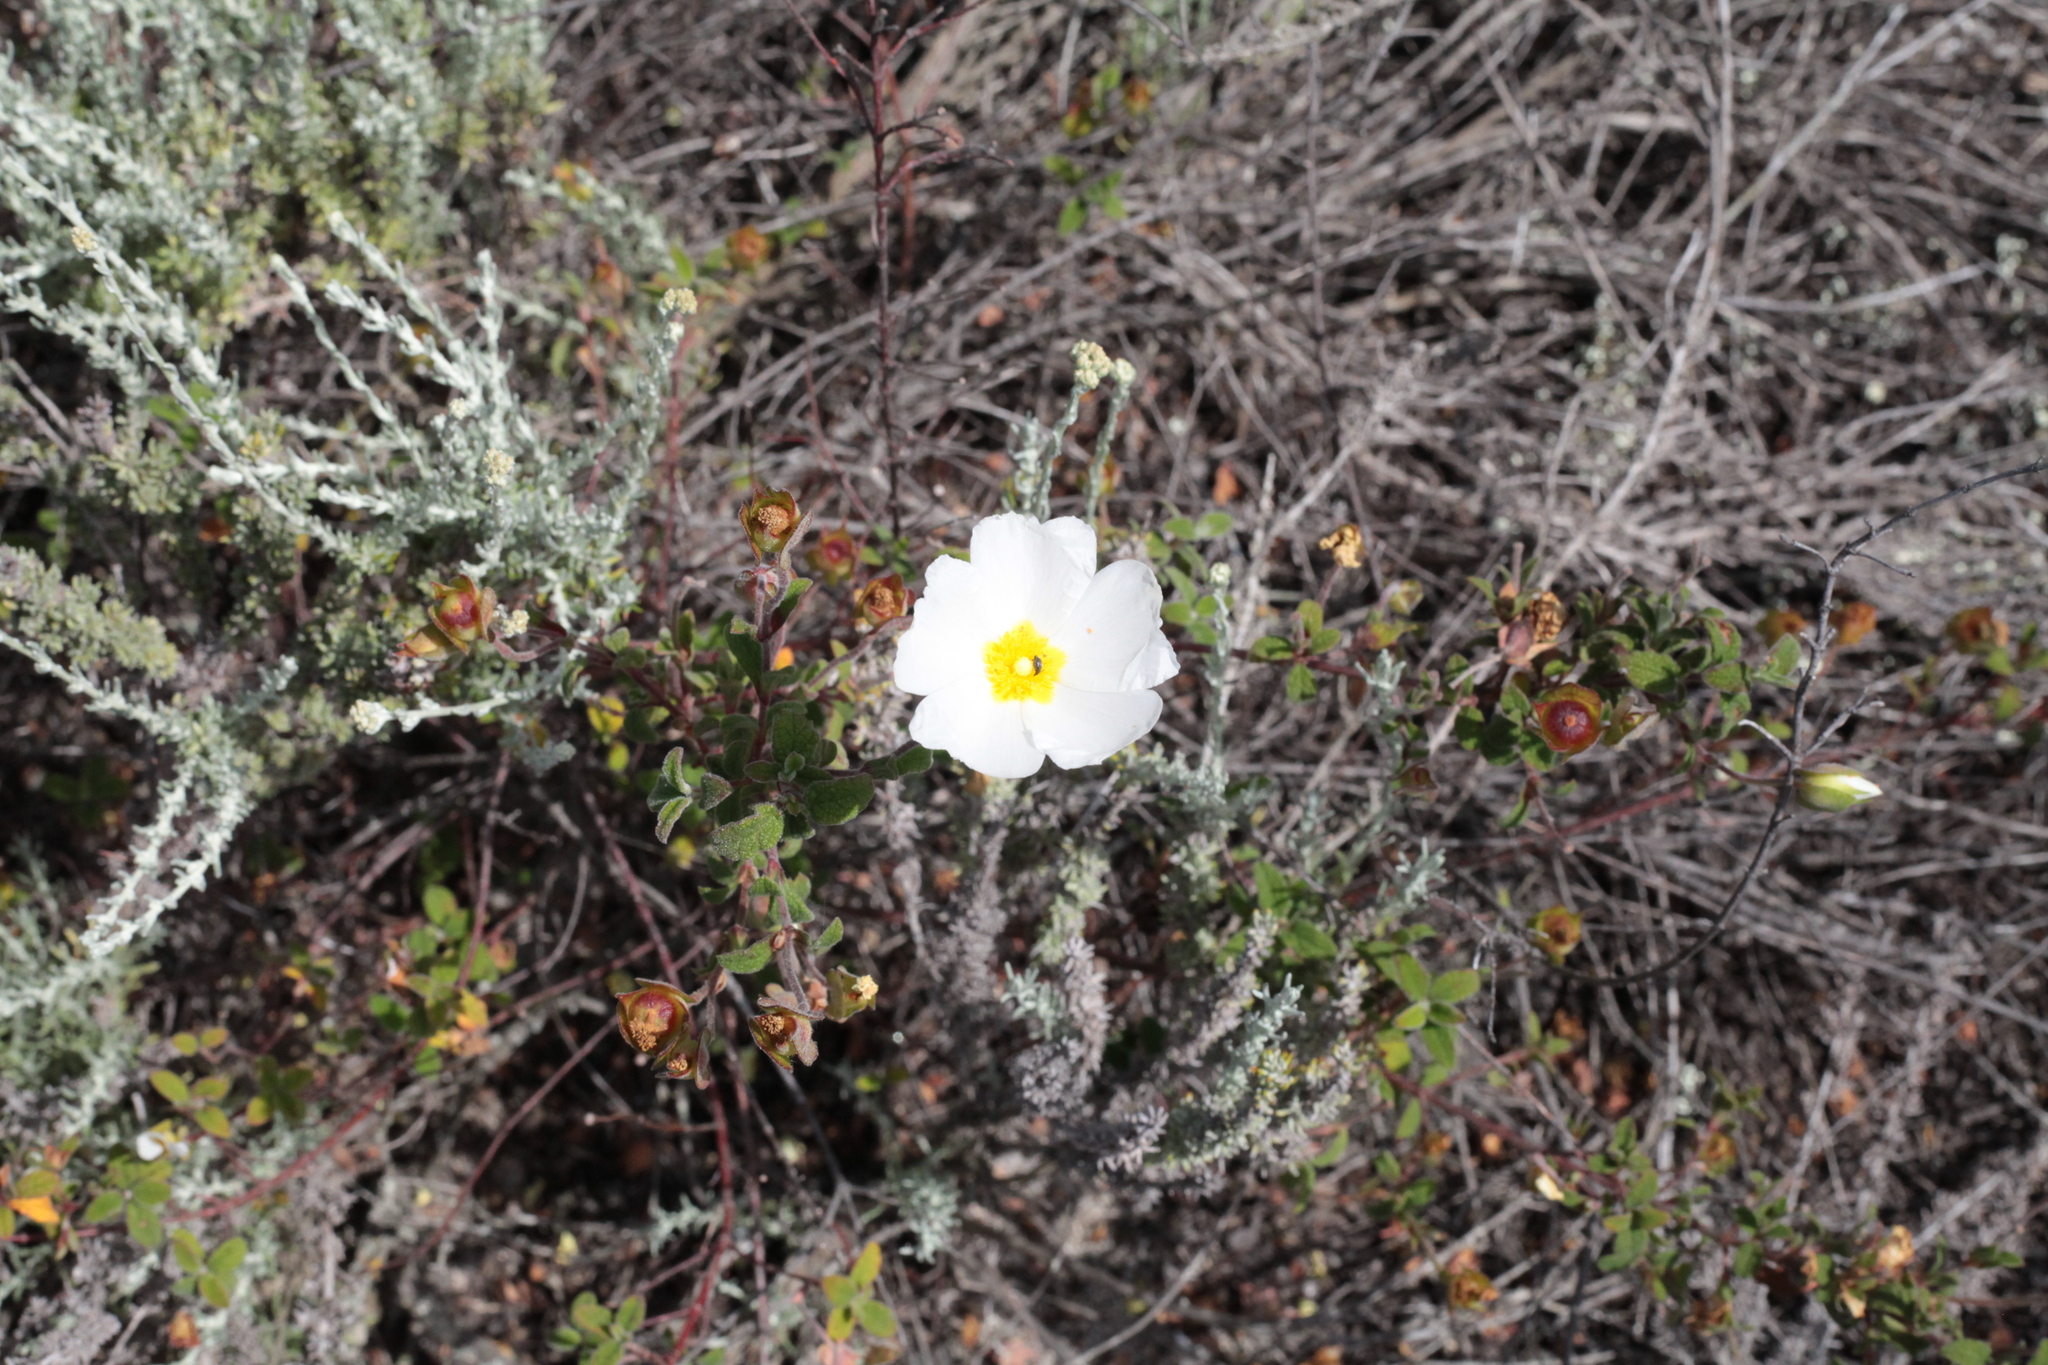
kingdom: Plantae
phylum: Tracheophyta
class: Magnoliopsida
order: Malvales
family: Cistaceae
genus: Cistus
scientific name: Cistus salviifolius
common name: Salvia cistus
